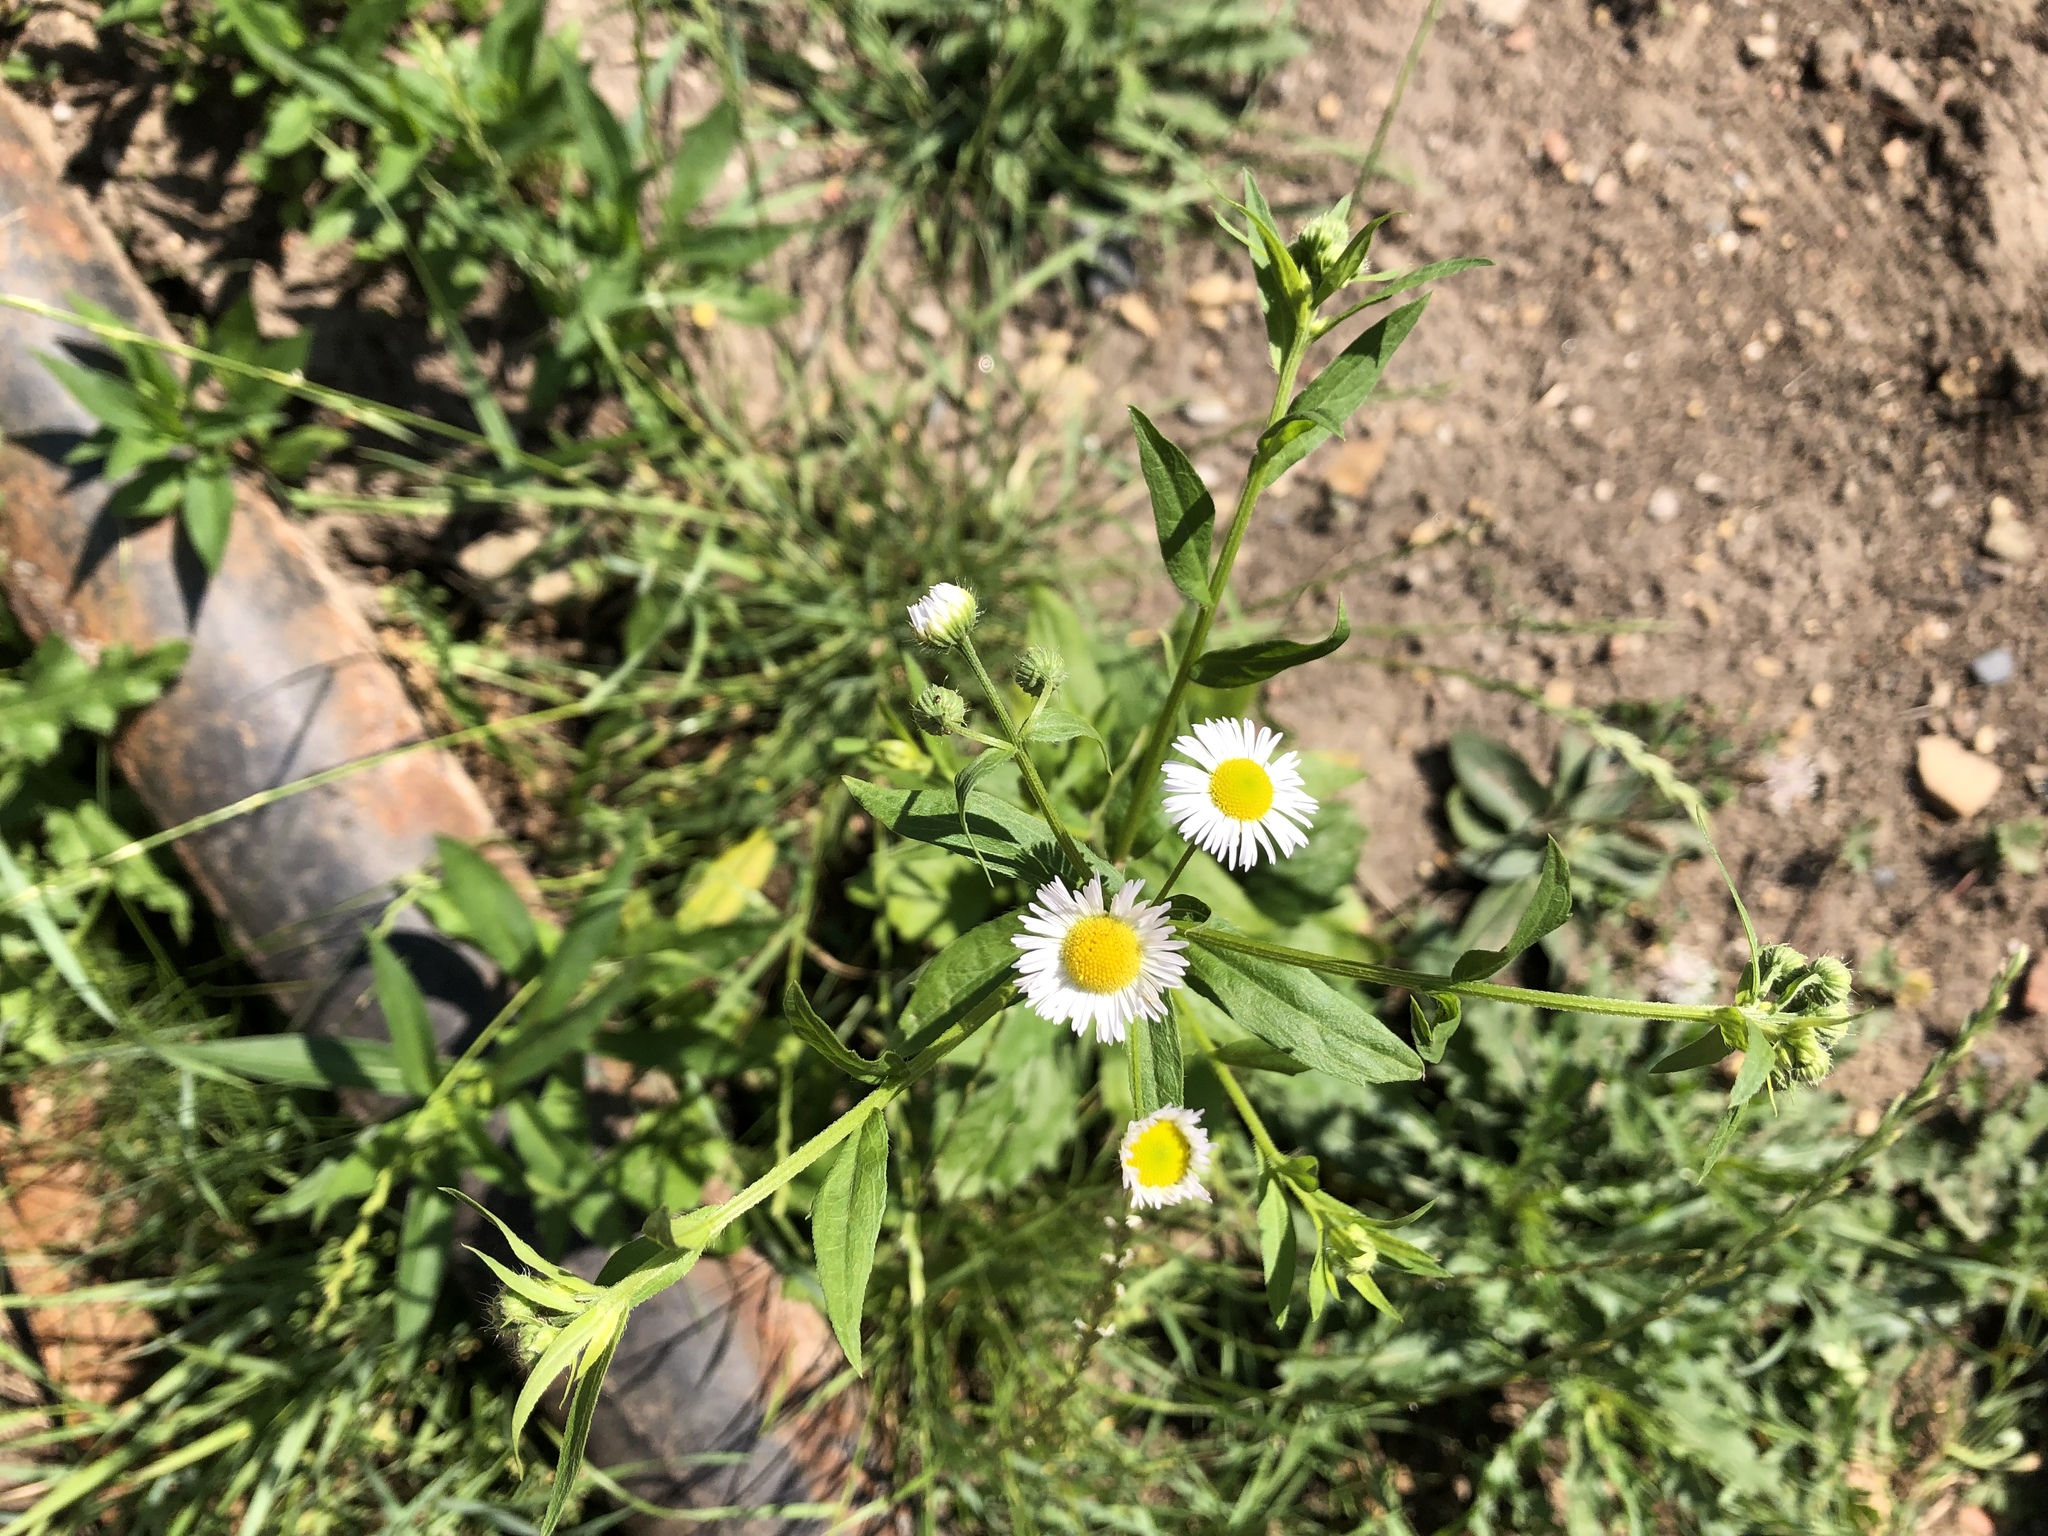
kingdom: Plantae
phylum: Tracheophyta
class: Magnoliopsida
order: Asterales
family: Asteraceae
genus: Erigeron
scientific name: Erigeron annuus
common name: Tall fleabane
